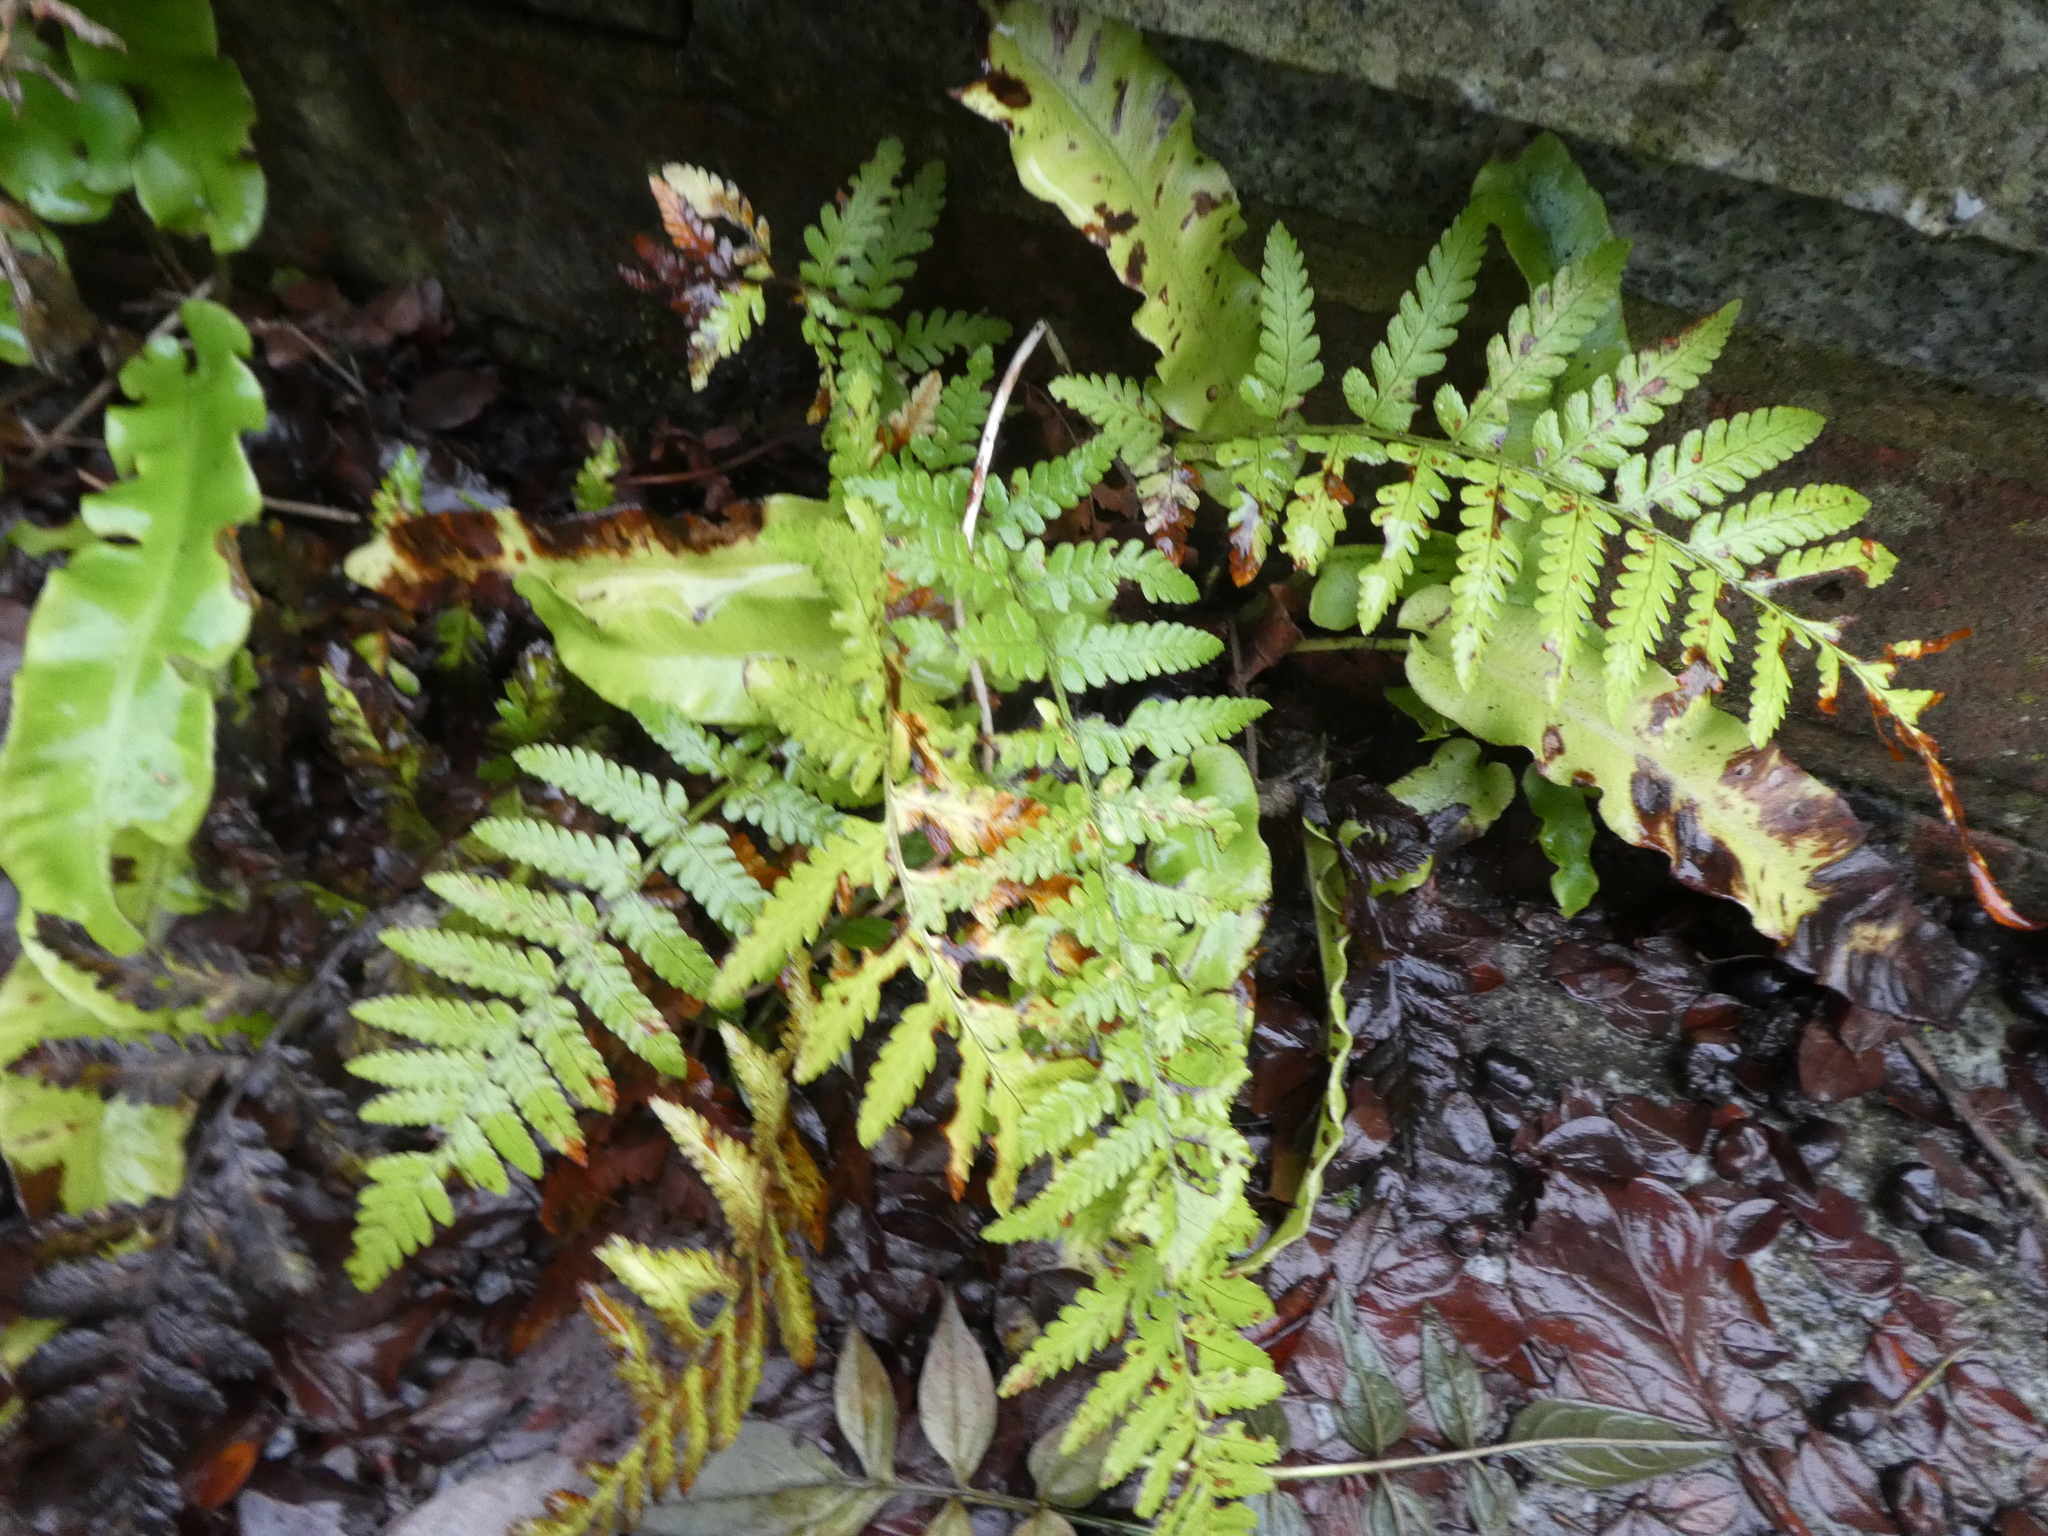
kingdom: Plantae
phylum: Tracheophyta
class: Polypodiopsida
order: Polypodiales
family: Dryopteridaceae
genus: Dryopteris
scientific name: Dryopteris filix-mas
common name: Male fern
